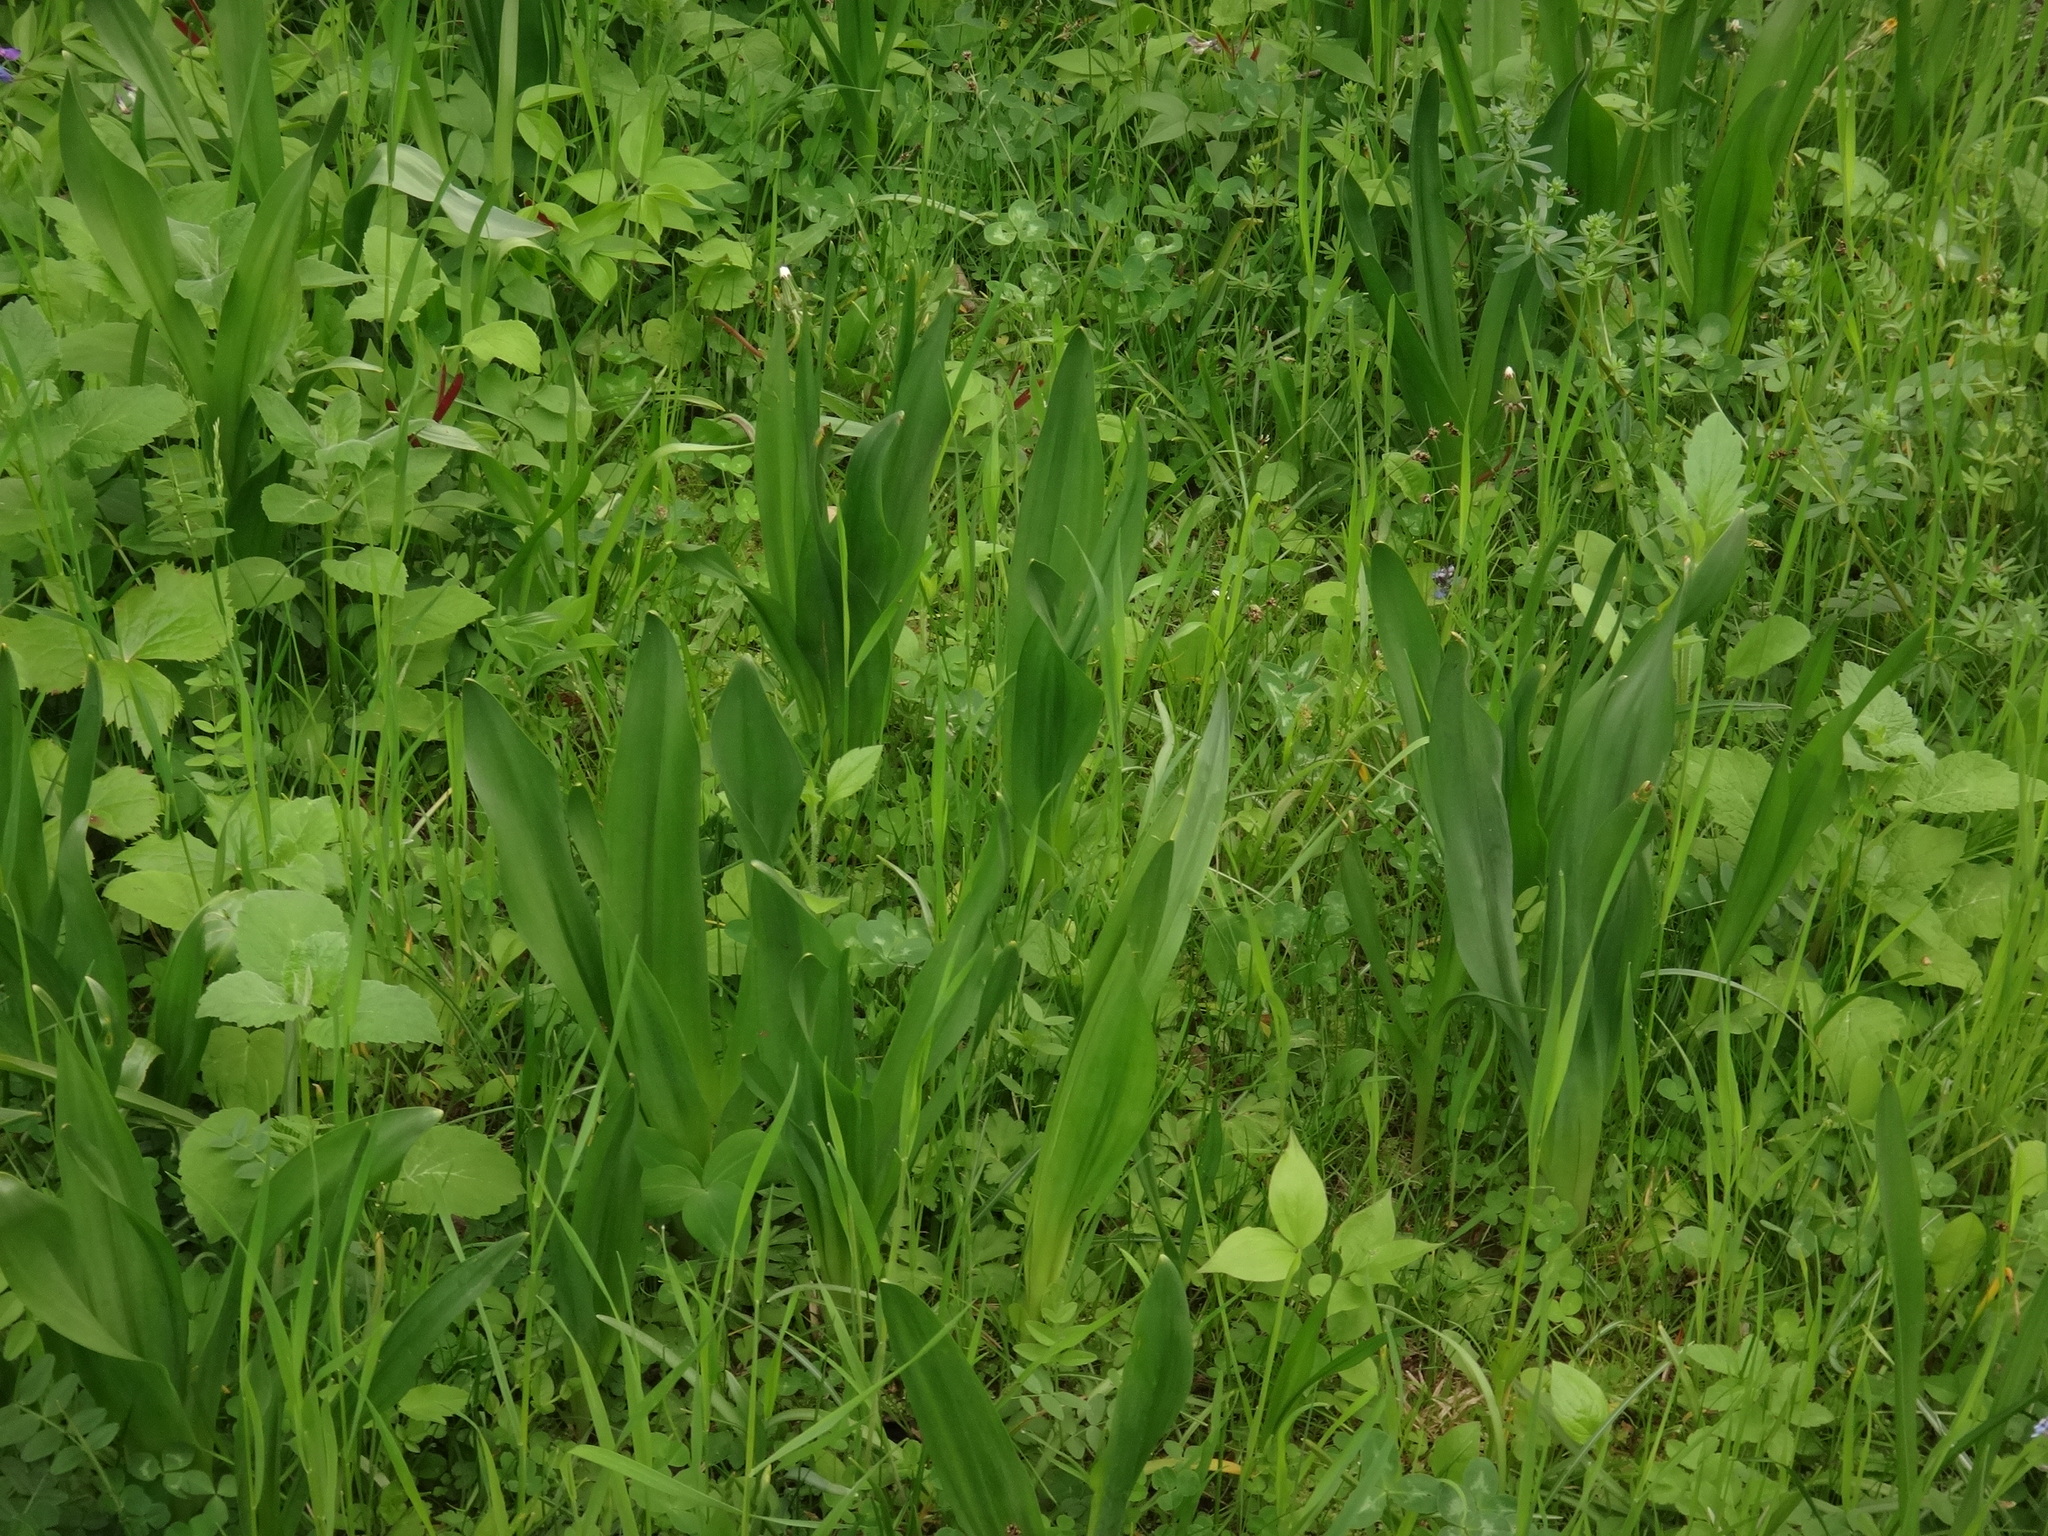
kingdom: Plantae
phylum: Tracheophyta
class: Liliopsida
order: Liliales
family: Colchicaceae
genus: Colchicum
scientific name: Colchicum autumnale
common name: Autumn crocus
